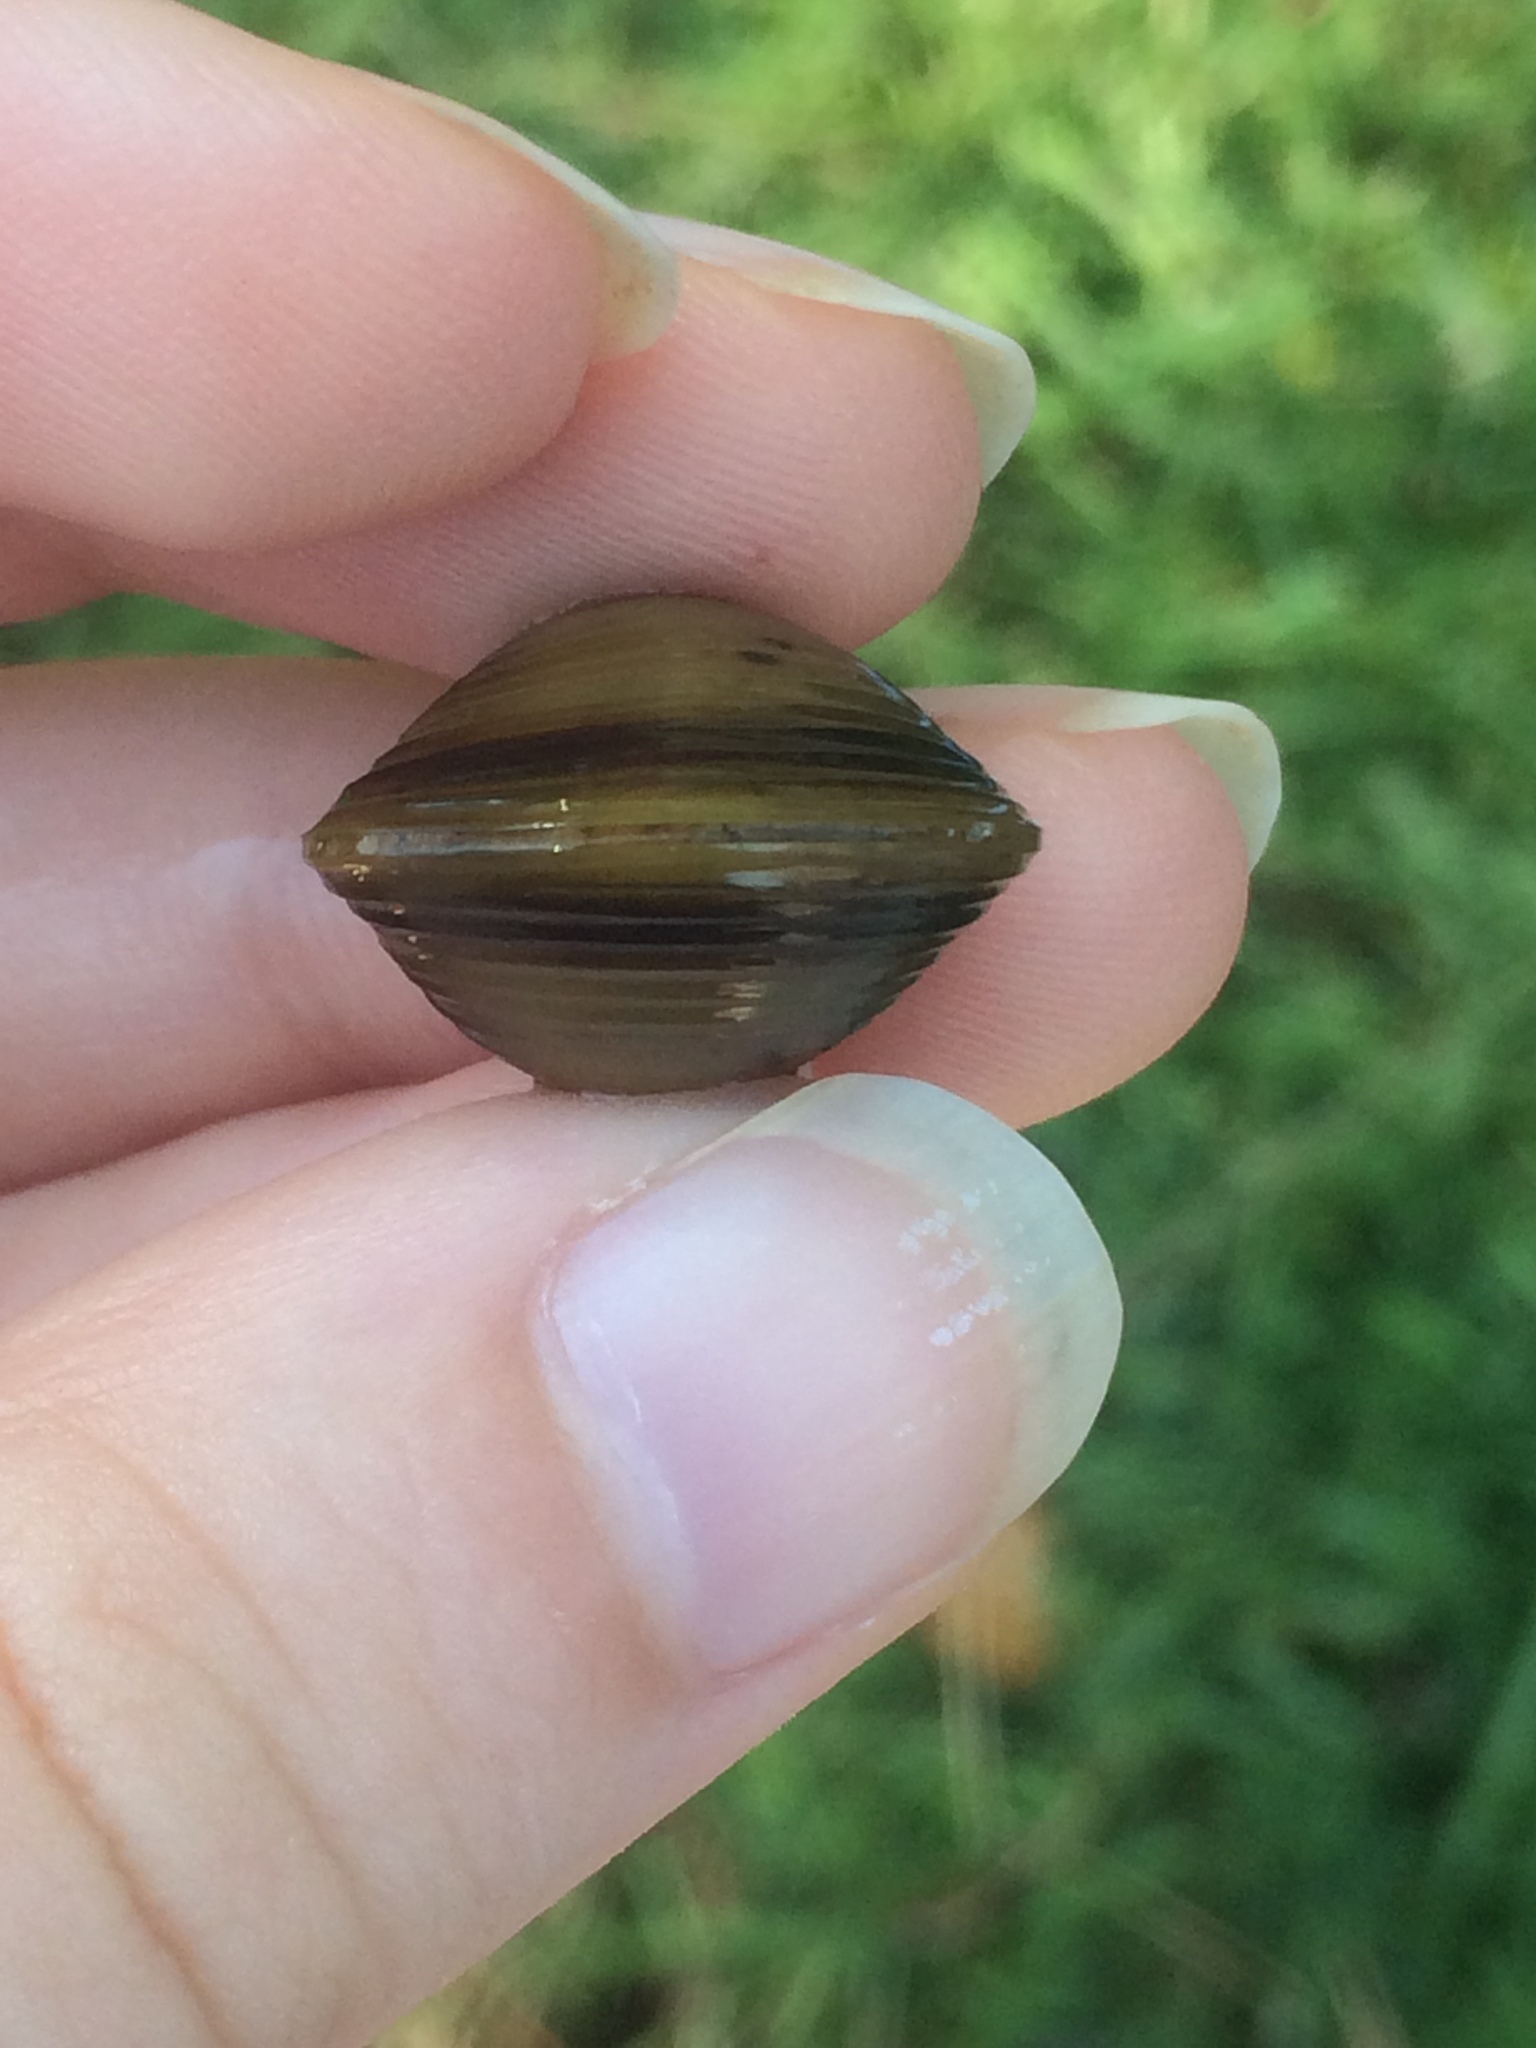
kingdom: Animalia
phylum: Mollusca
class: Bivalvia
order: Venerida
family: Cyrenidae
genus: Corbicula
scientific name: Corbicula fluminea
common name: Asian clam
